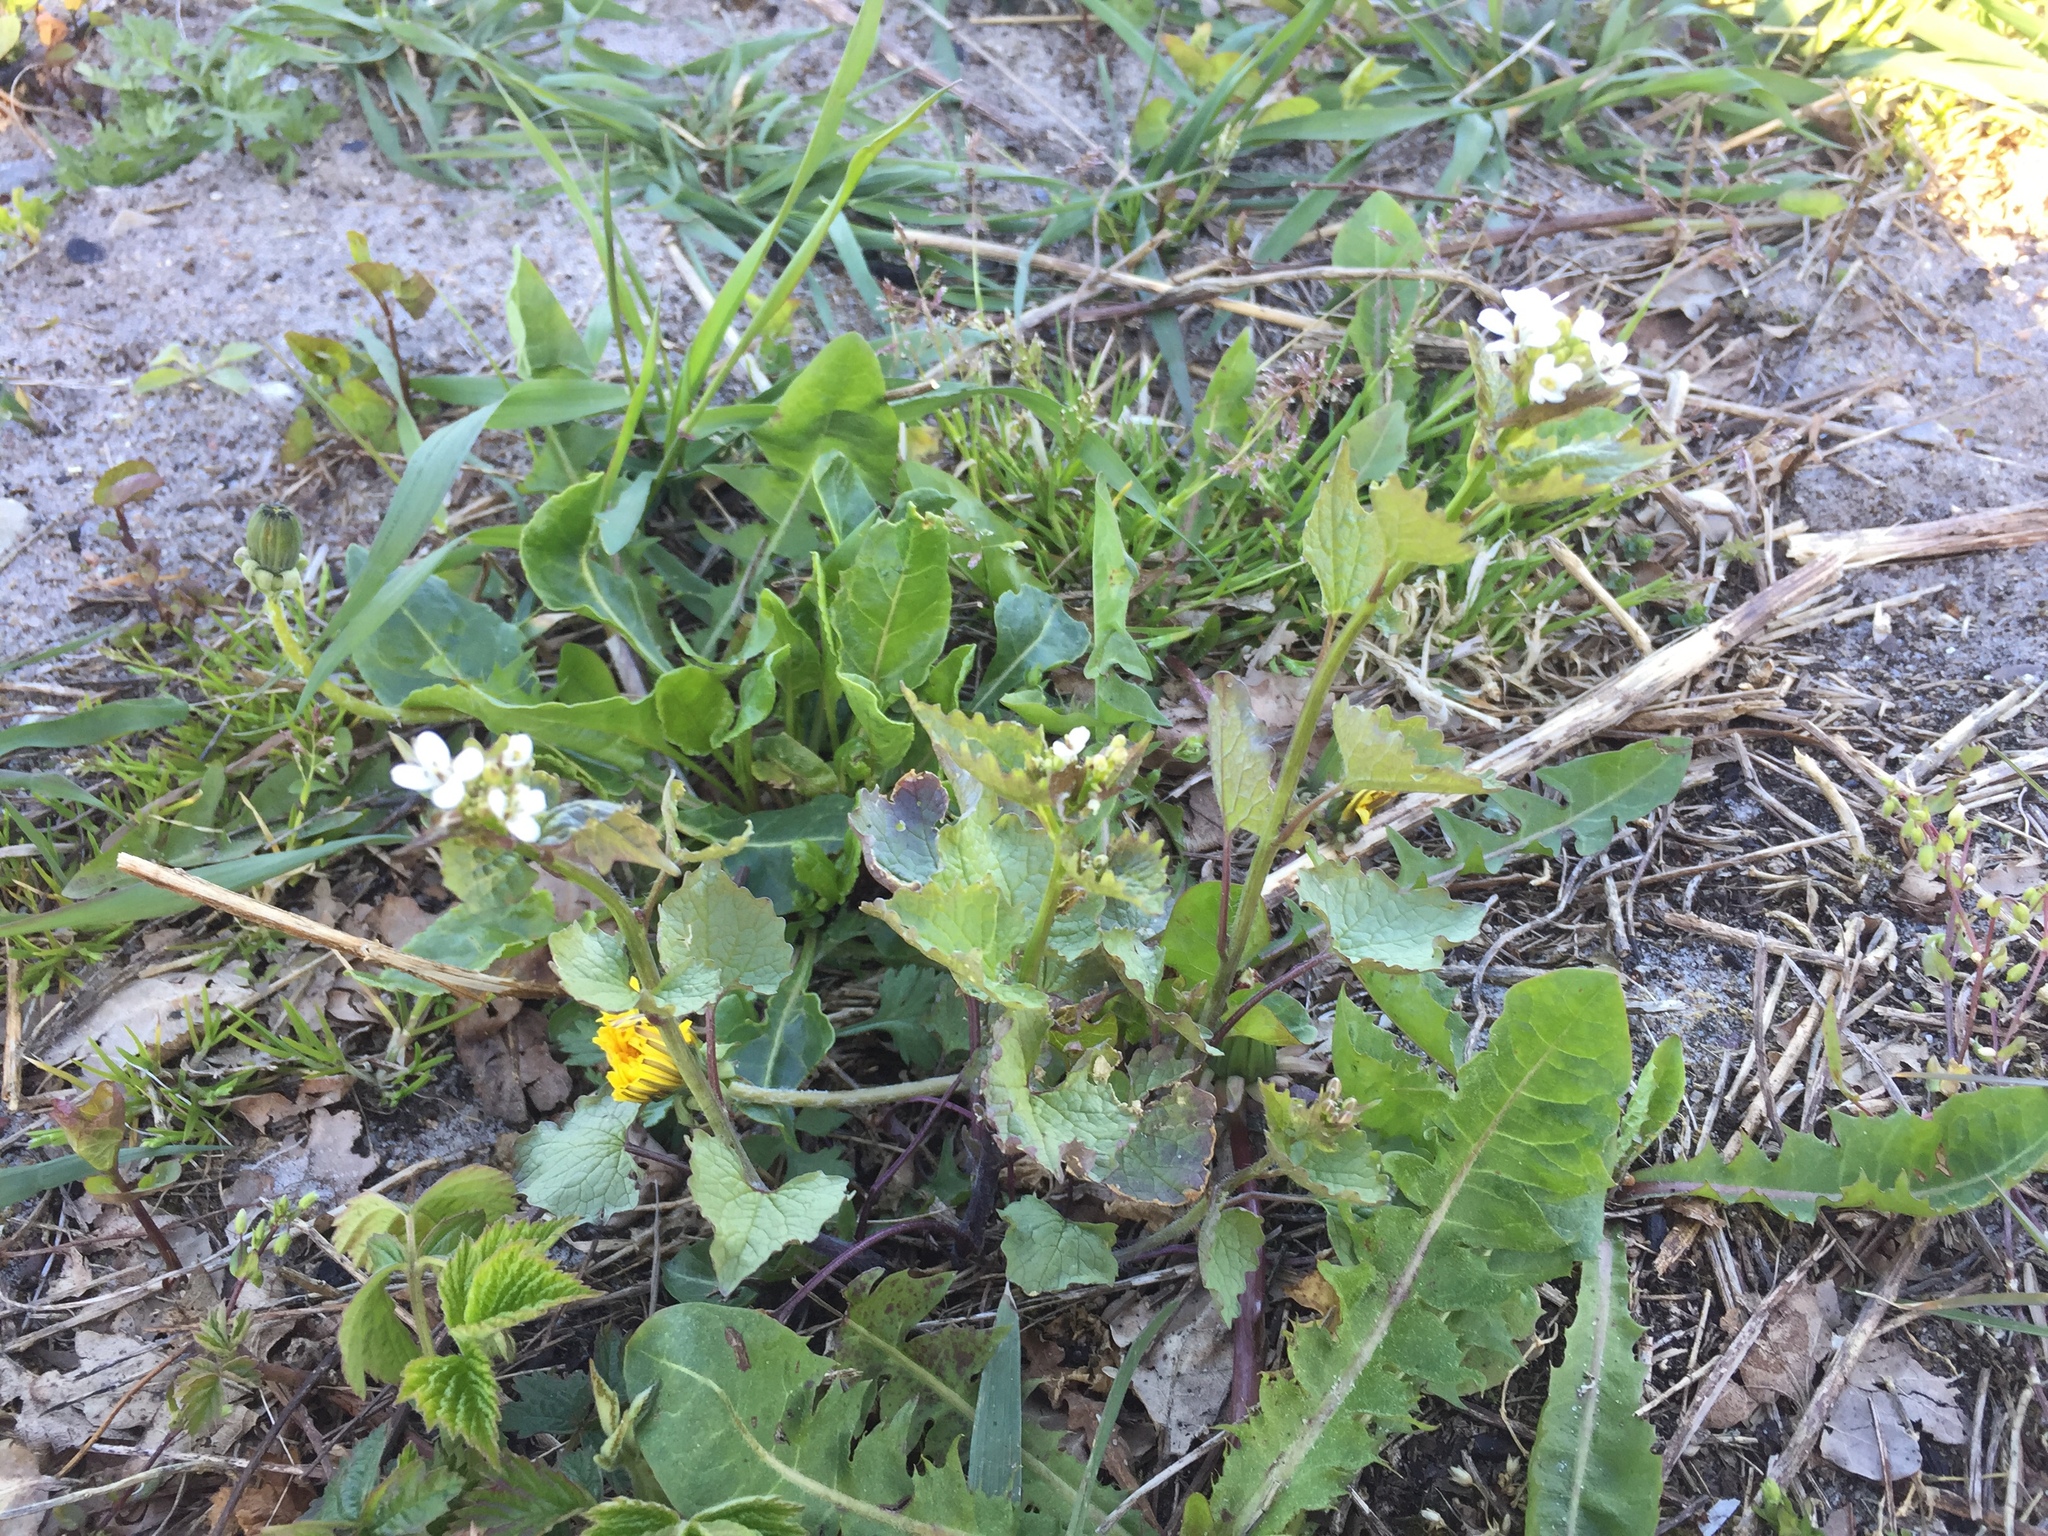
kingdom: Plantae
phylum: Tracheophyta
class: Magnoliopsida
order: Brassicales
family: Brassicaceae
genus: Alliaria
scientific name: Alliaria petiolata
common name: Garlic mustard
